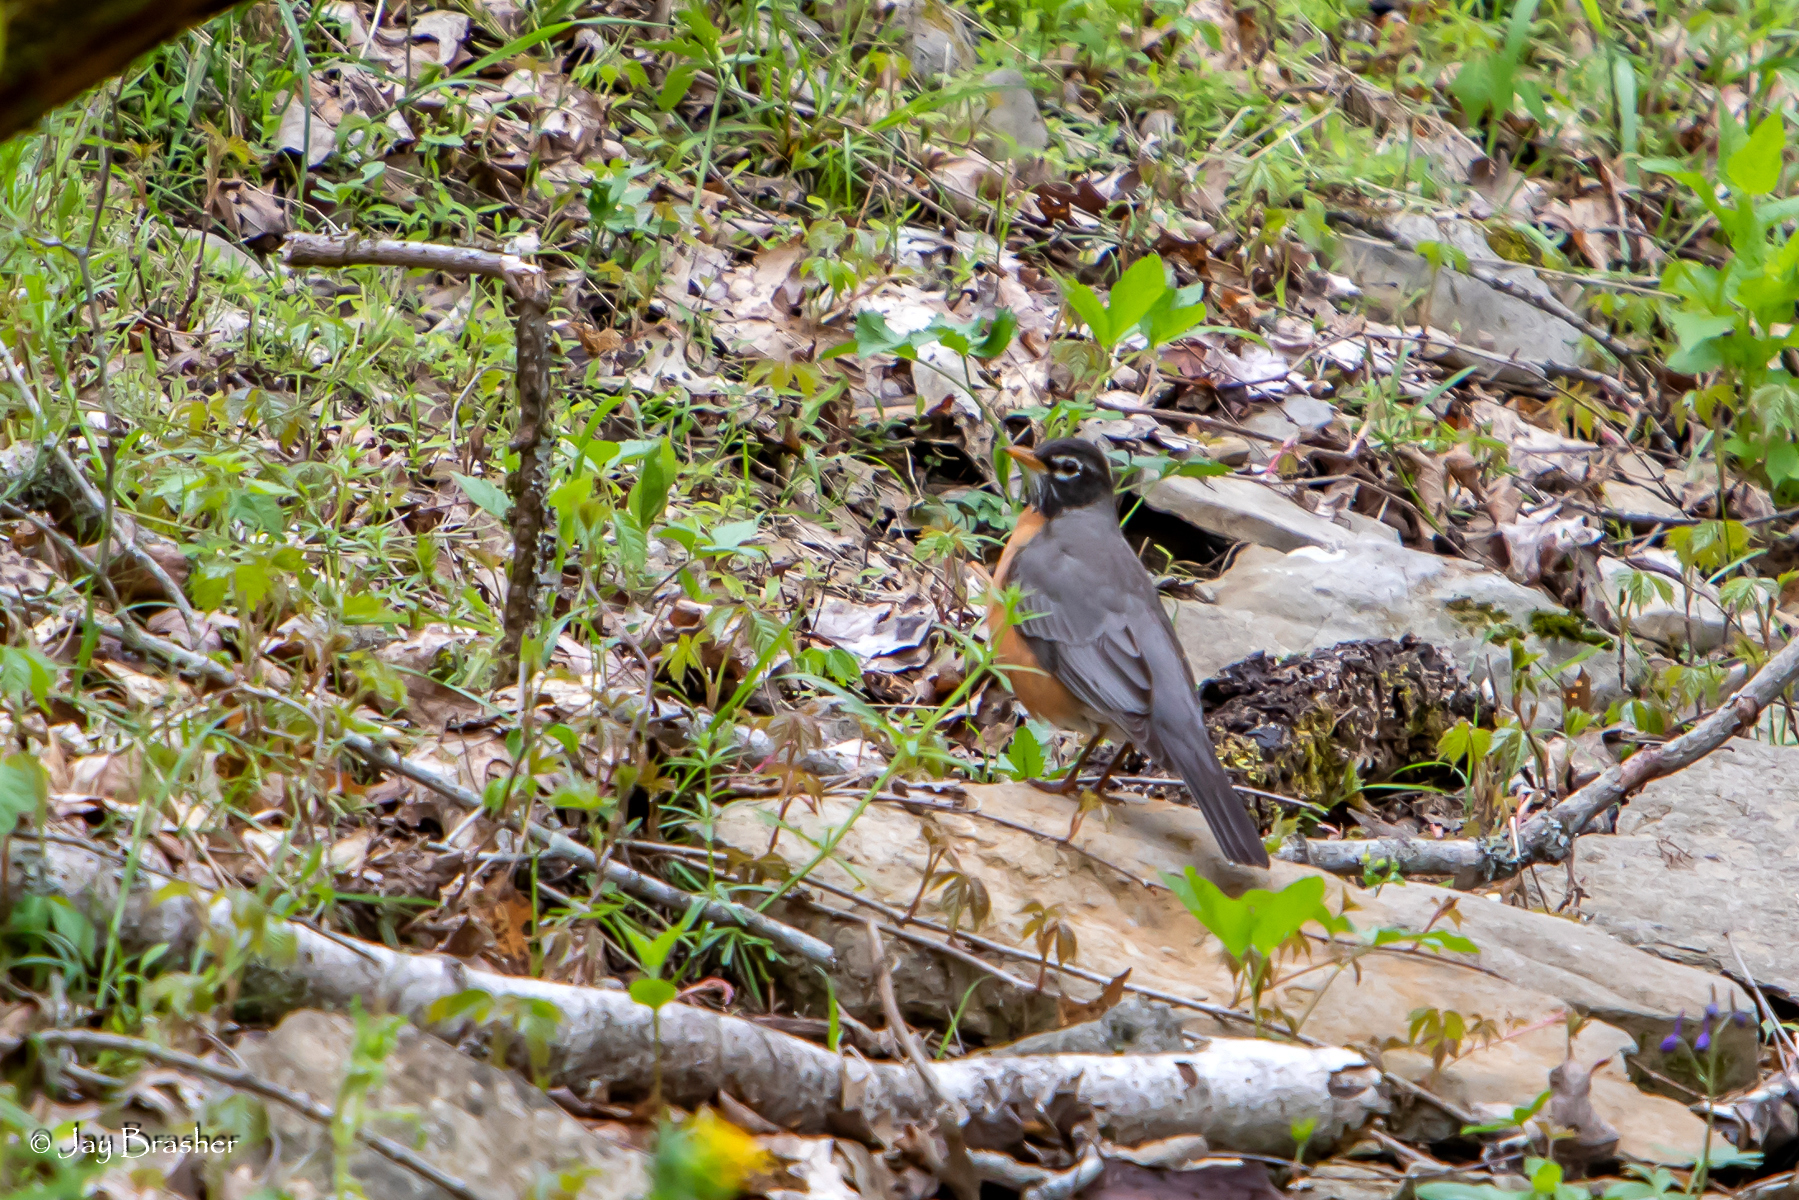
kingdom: Animalia
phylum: Chordata
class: Aves
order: Passeriformes
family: Turdidae
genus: Turdus
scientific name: Turdus migratorius
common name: American robin
